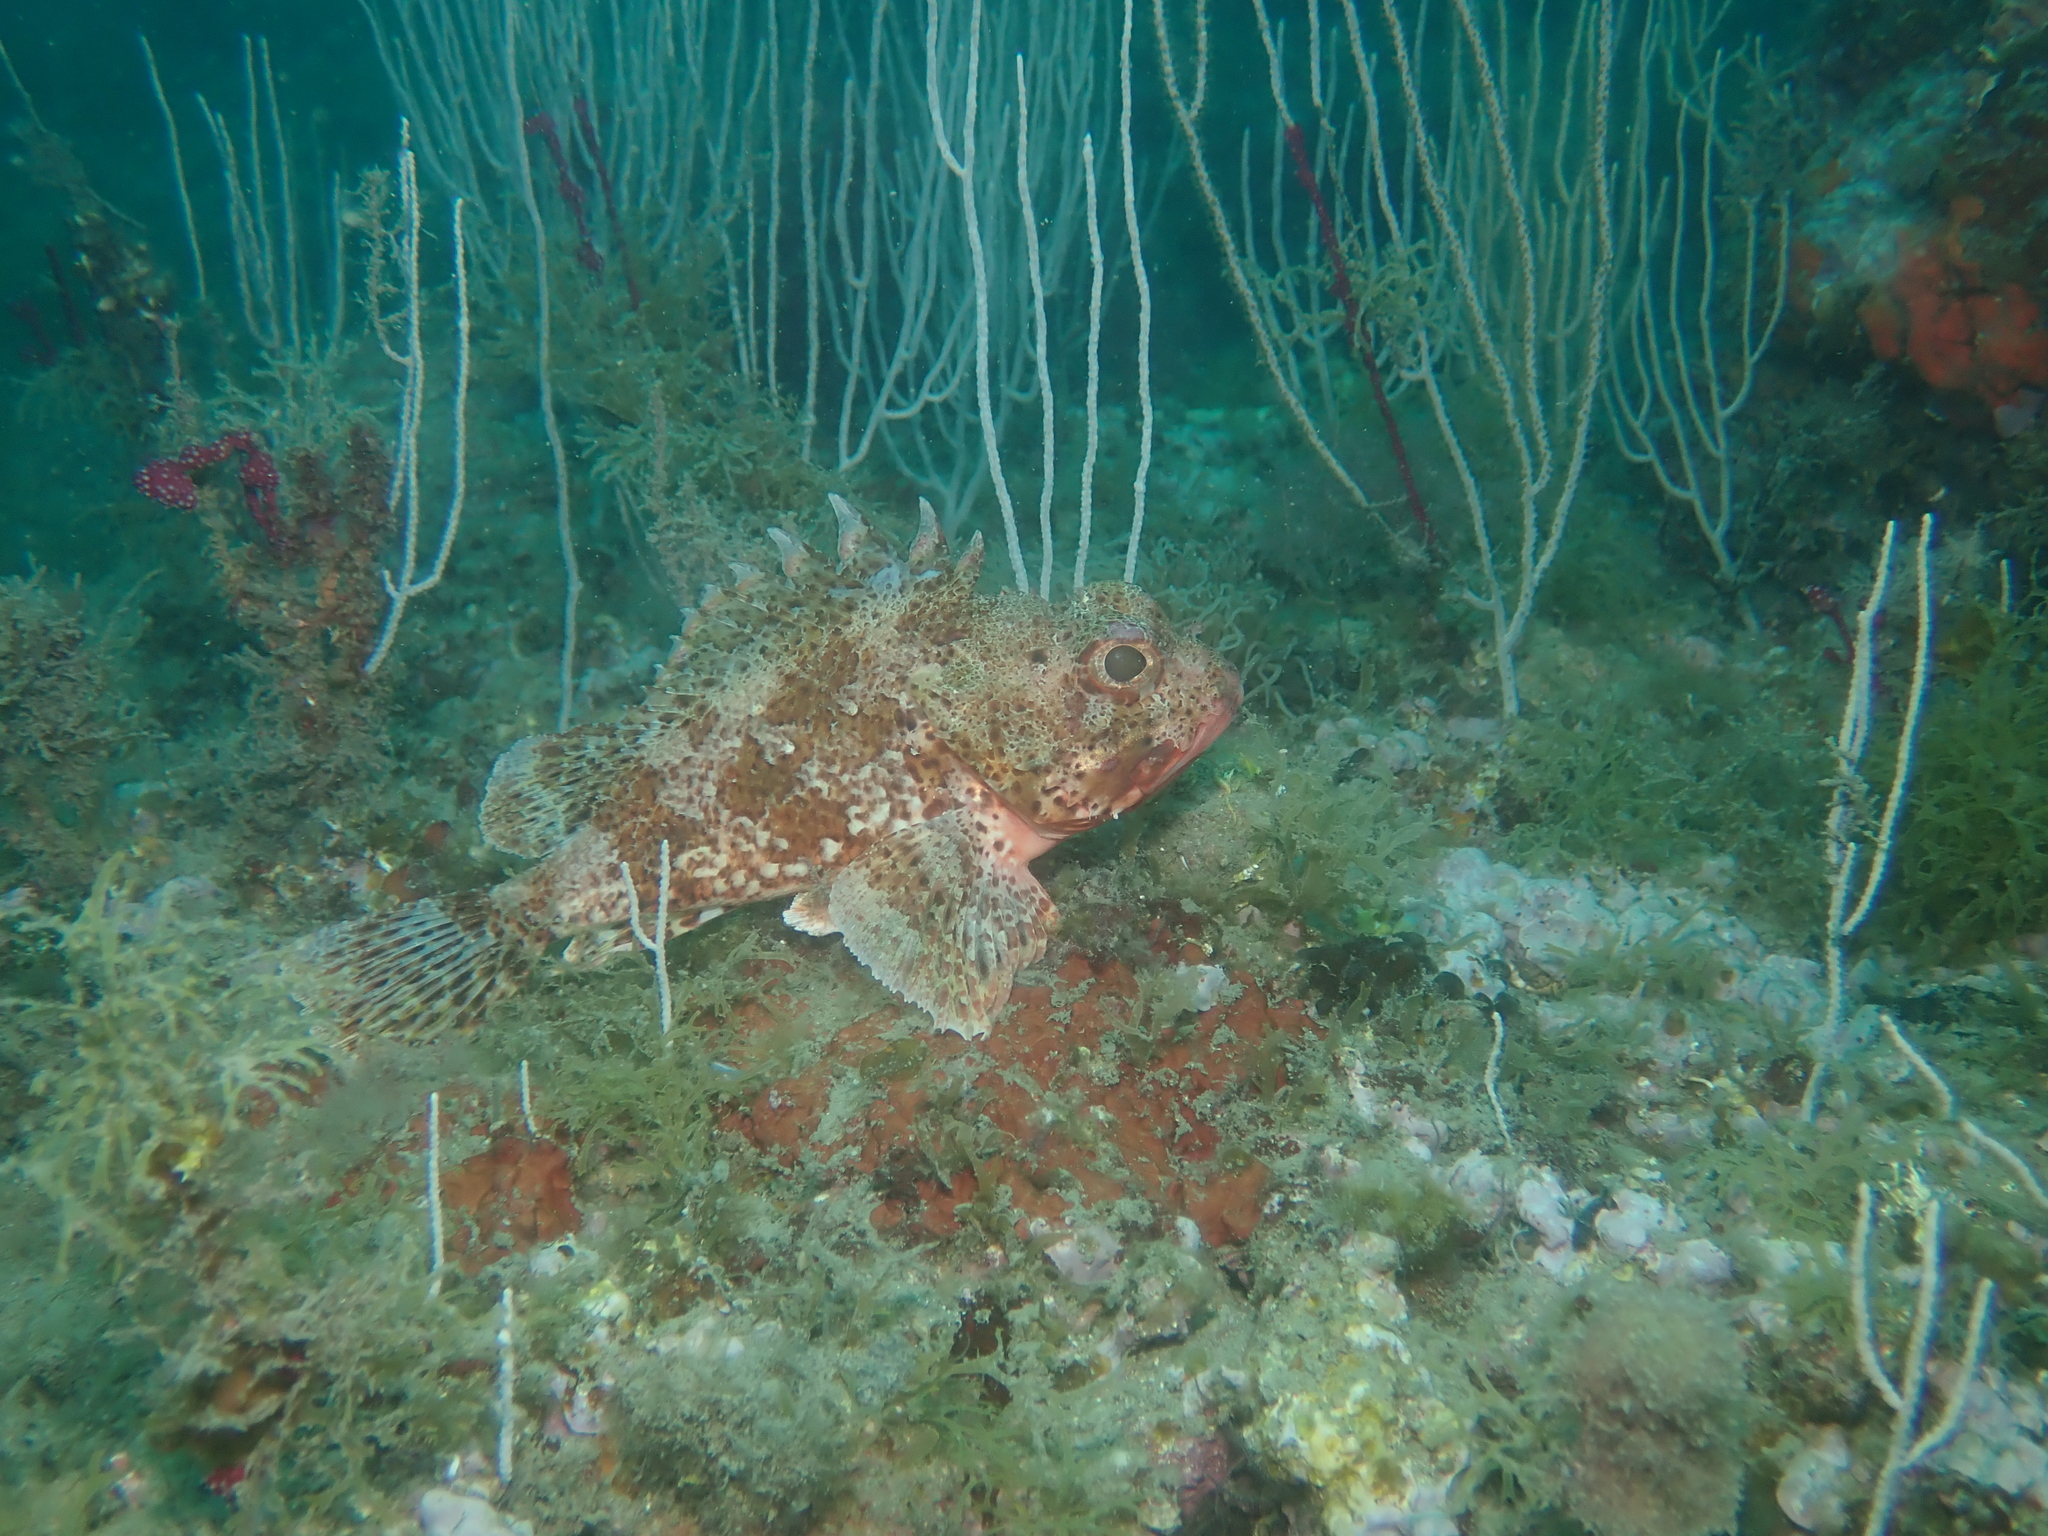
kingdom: Animalia
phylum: Chordata
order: Scorpaeniformes
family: Scorpaenidae
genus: Scorpaena
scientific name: Scorpaena notata
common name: Small red scorpionfish
